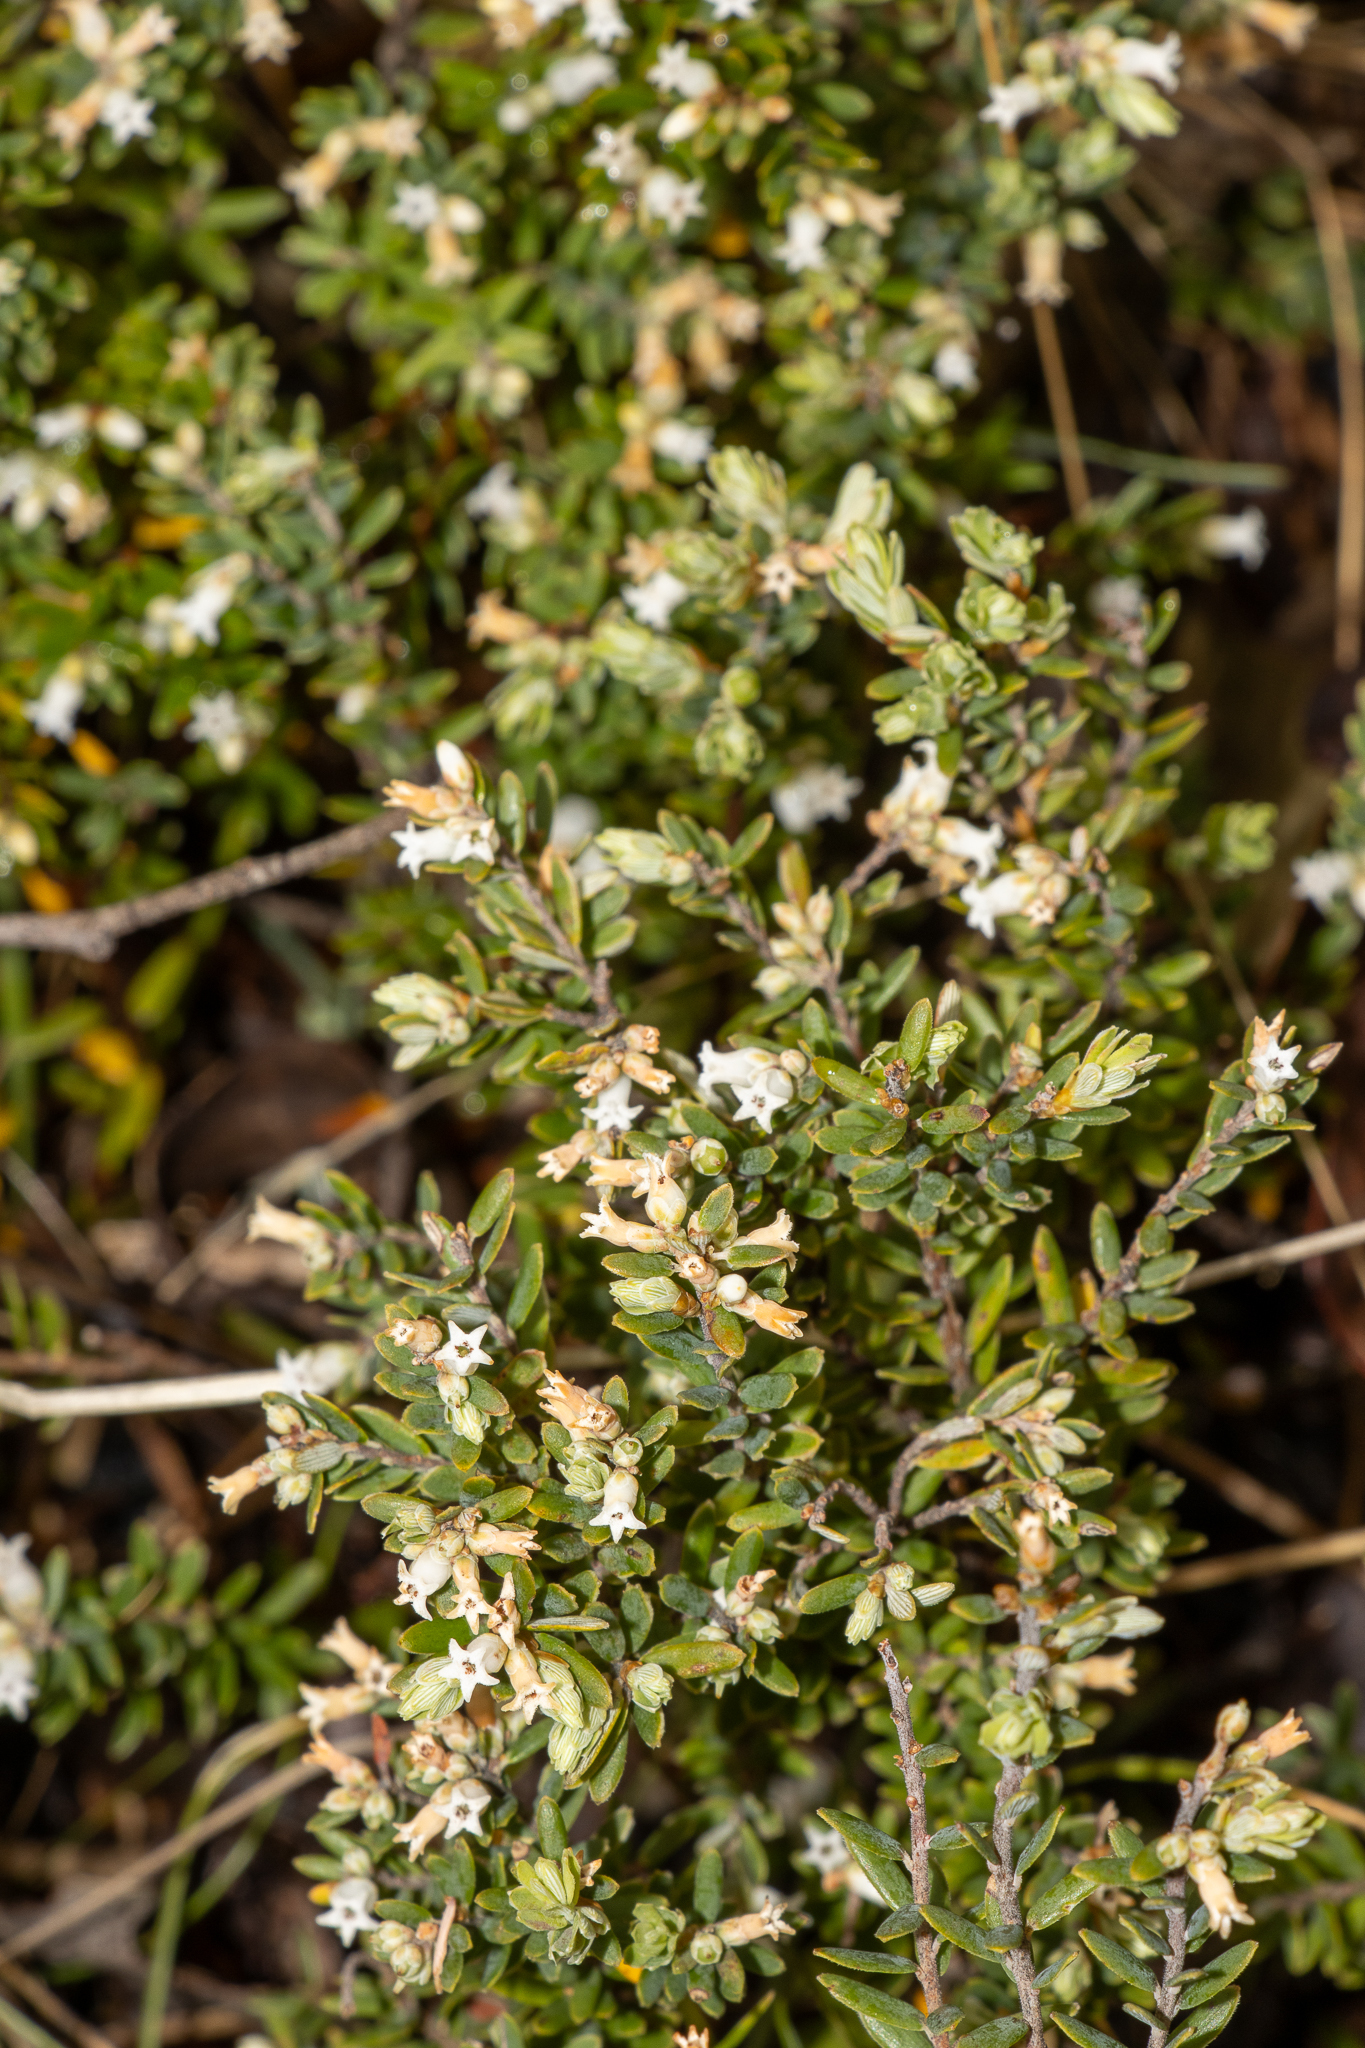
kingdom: Plantae
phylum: Tracheophyta
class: Magnoliopsida
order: Ericales
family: Ericaceae
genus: Acrothamnus
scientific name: Acrothamnus hookeri
